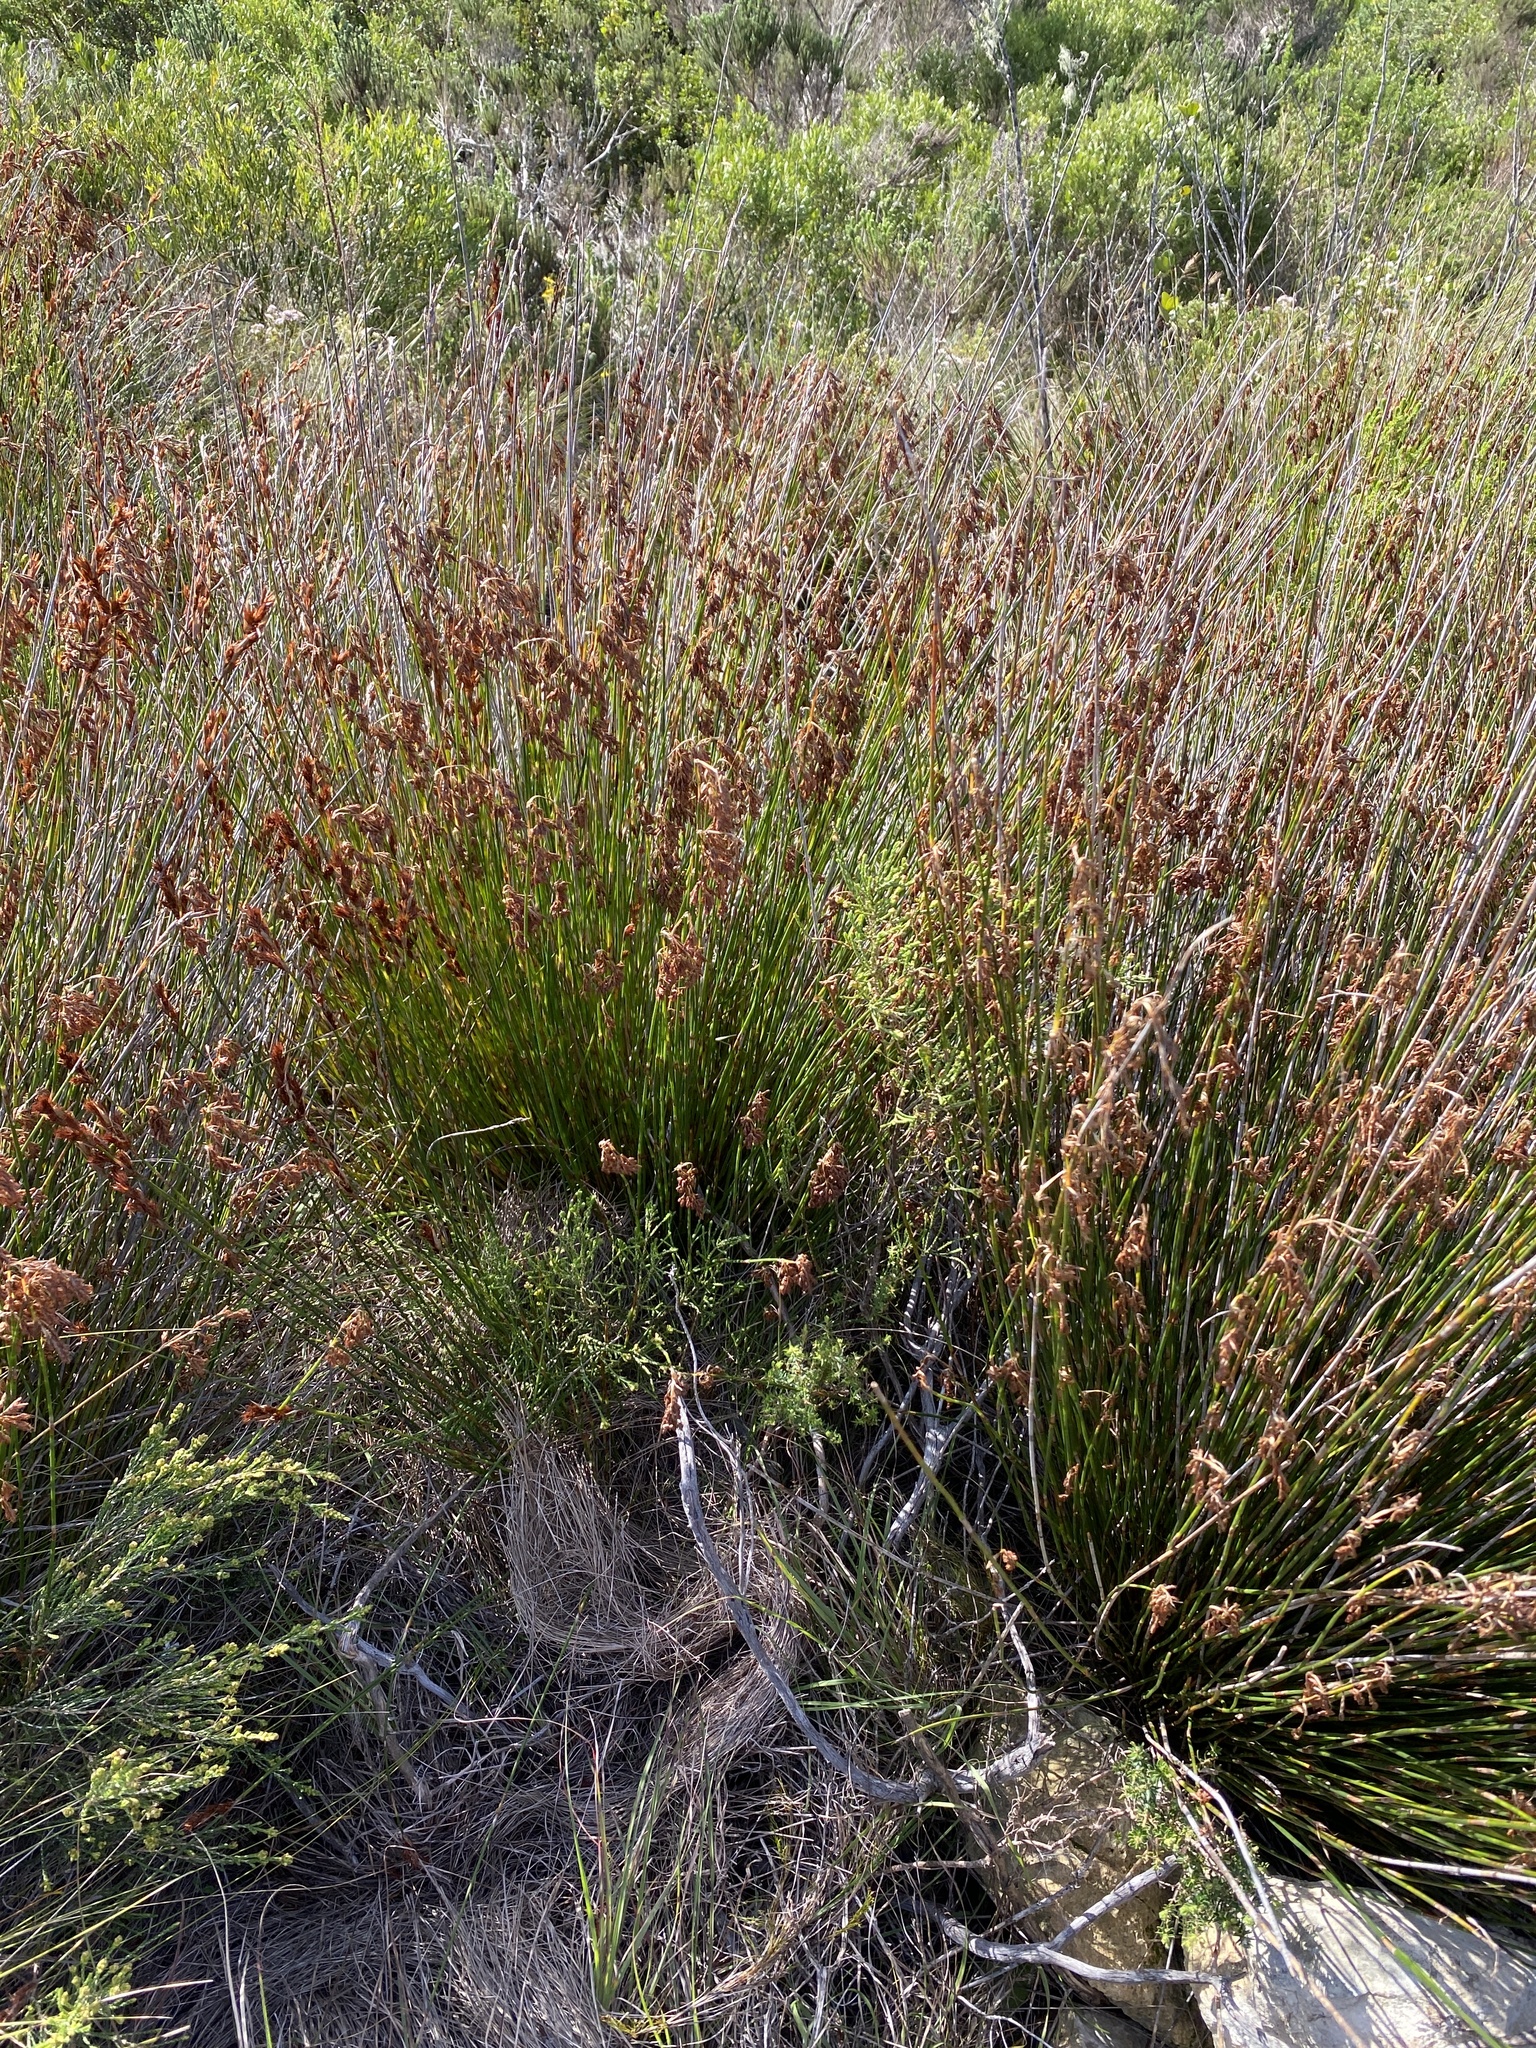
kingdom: Plantae
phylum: Tracheophyta
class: Liliopsida
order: Poales
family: Restionaceae
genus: Thamnochortus
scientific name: Thamnochortus fraternus
